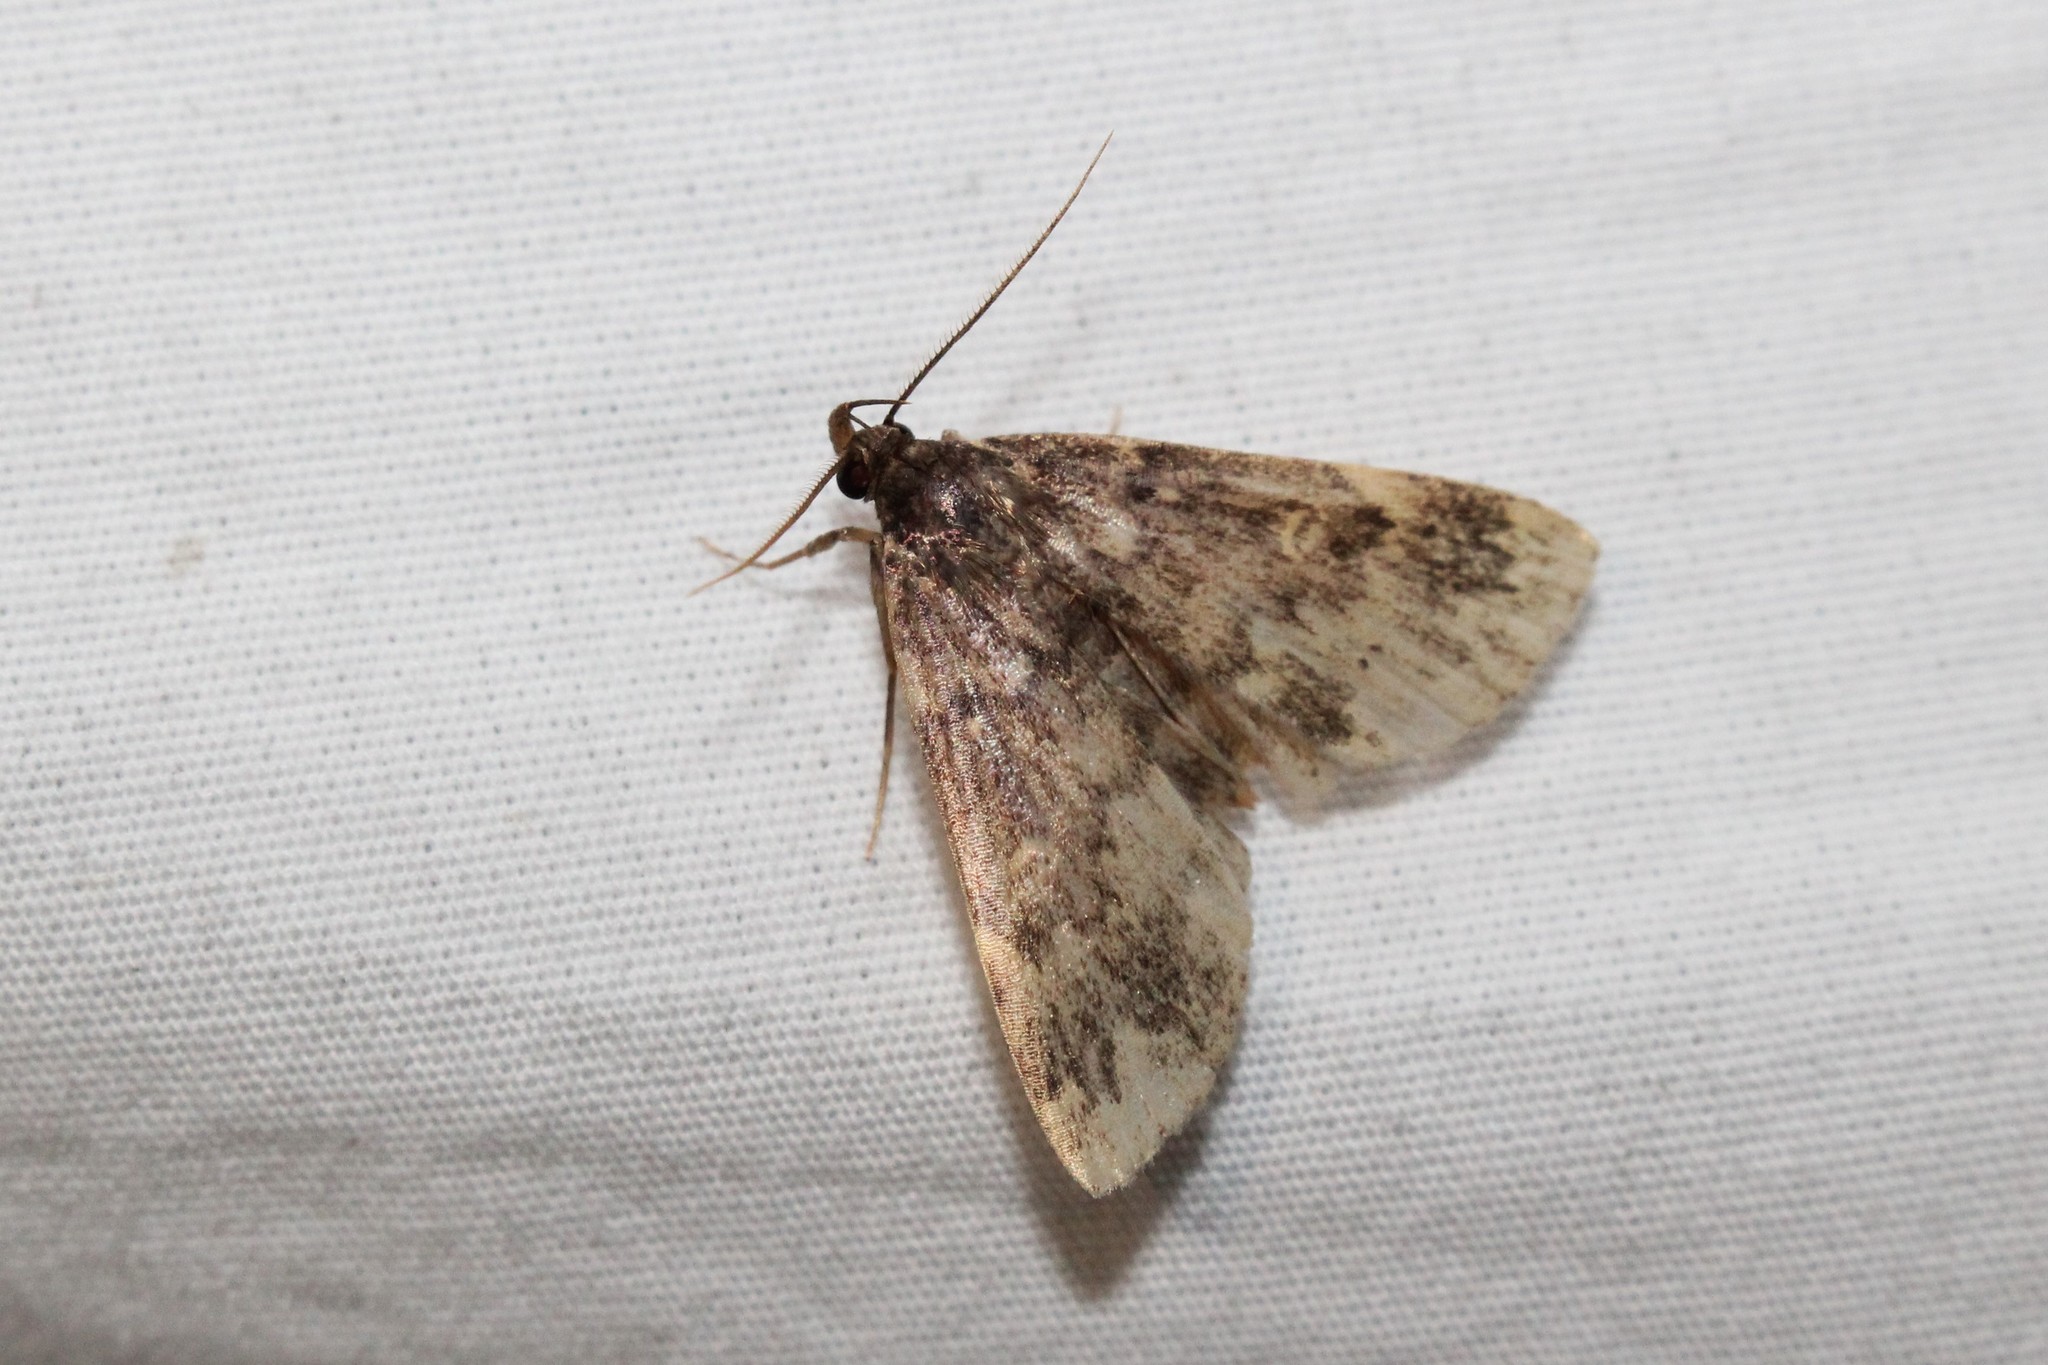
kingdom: Animalia
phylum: Arthropoda
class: Insecta
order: Lepidoptera
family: Erebidae
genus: Idia
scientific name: Idia lubricalis
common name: Twin-striped tabby
